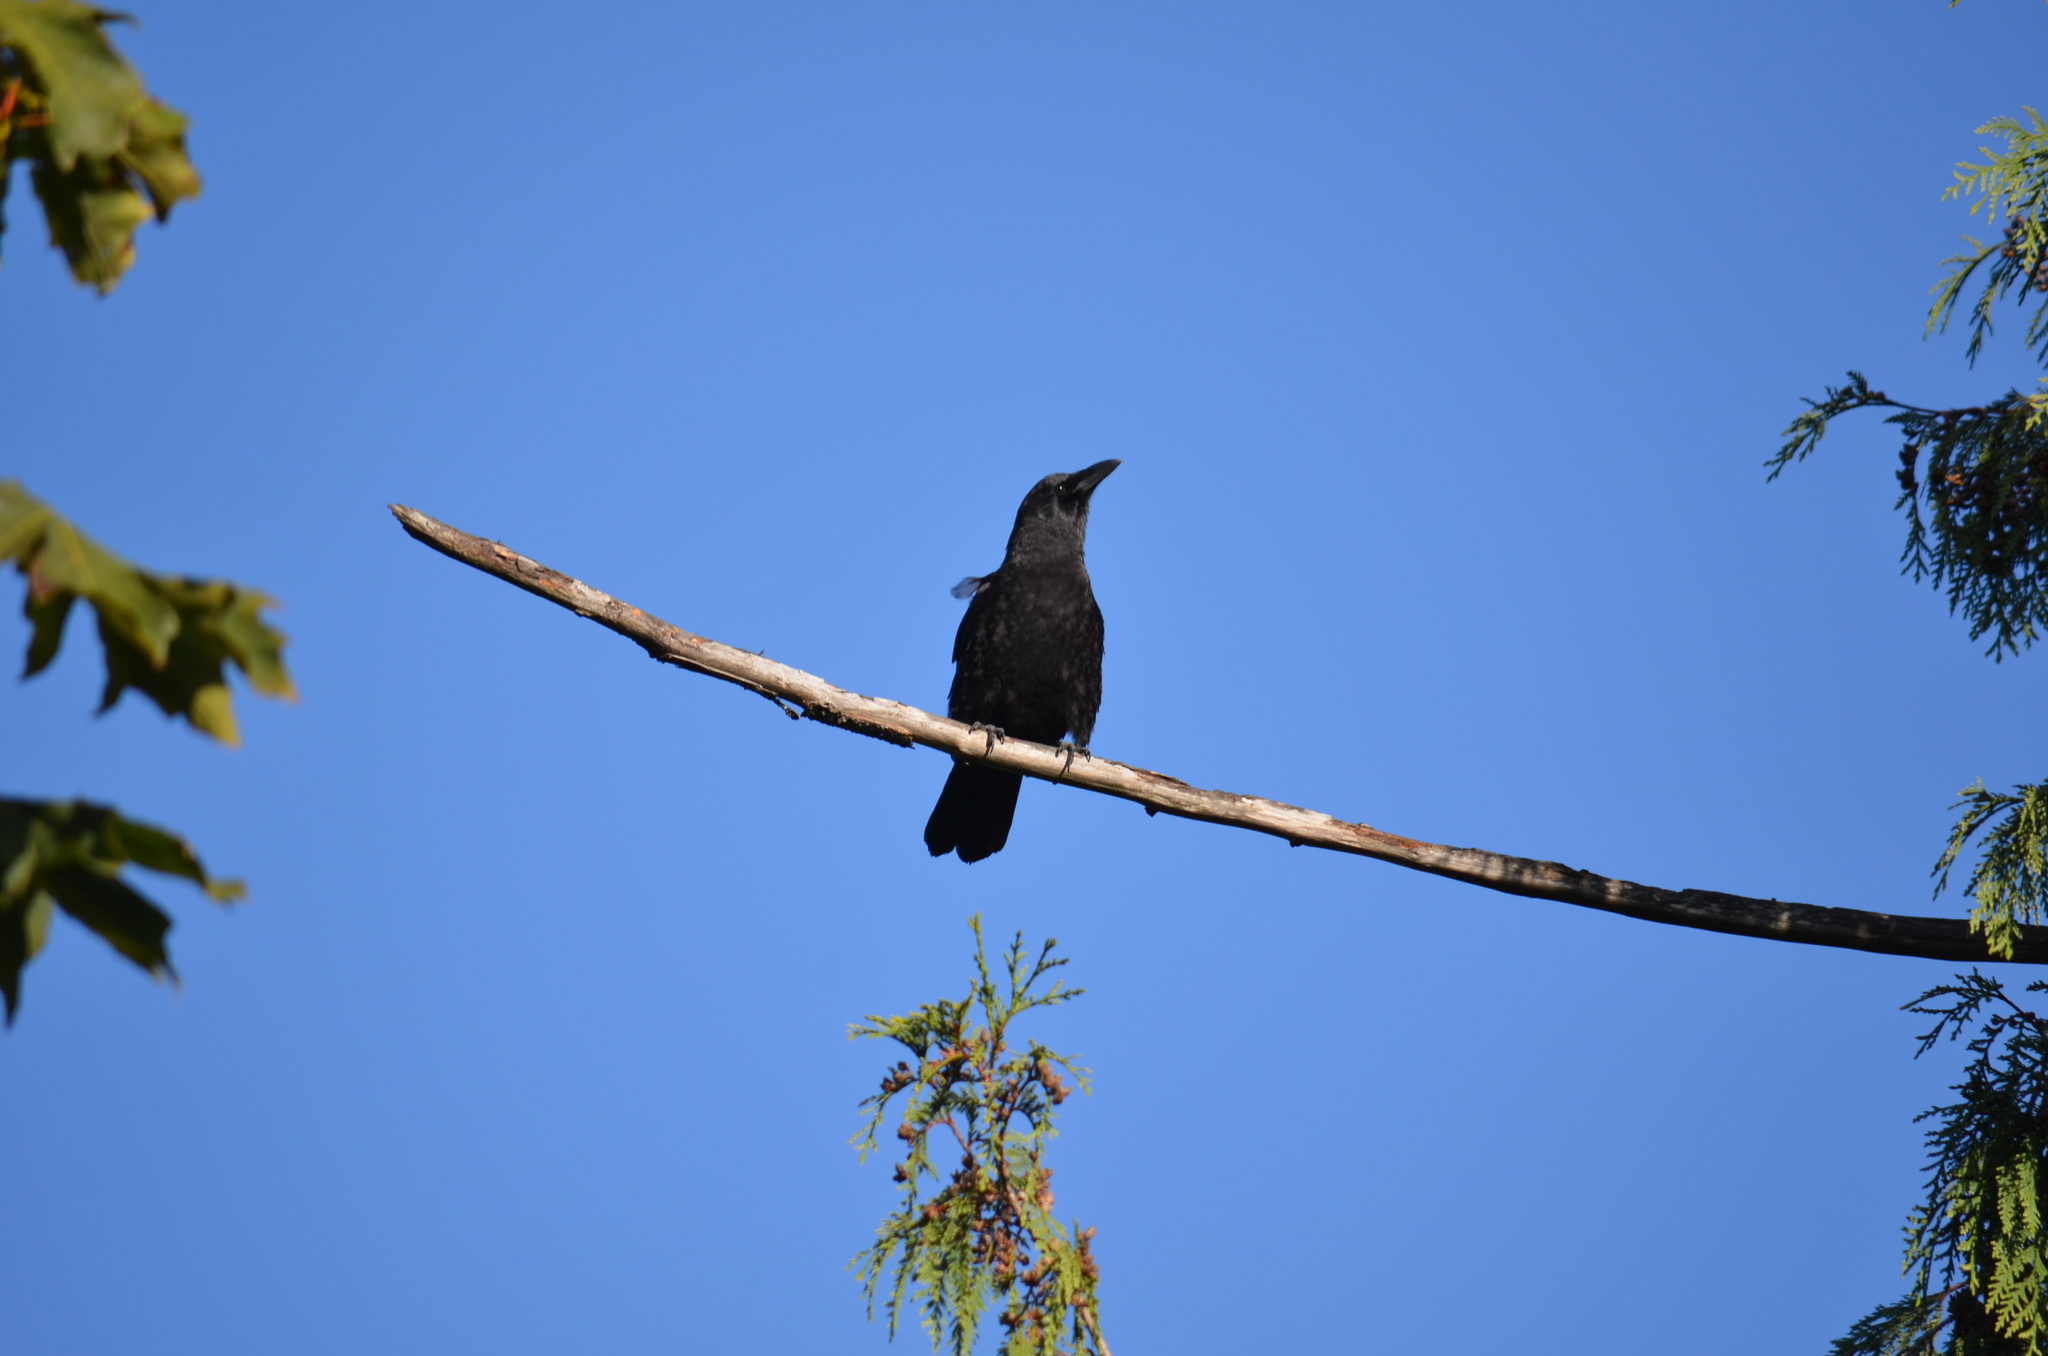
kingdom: Animalia
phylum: Chordata
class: Aves
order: Passeriformes
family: Corvidae
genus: Corvus
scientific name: Corvus brachyrhynchos
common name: American crow
